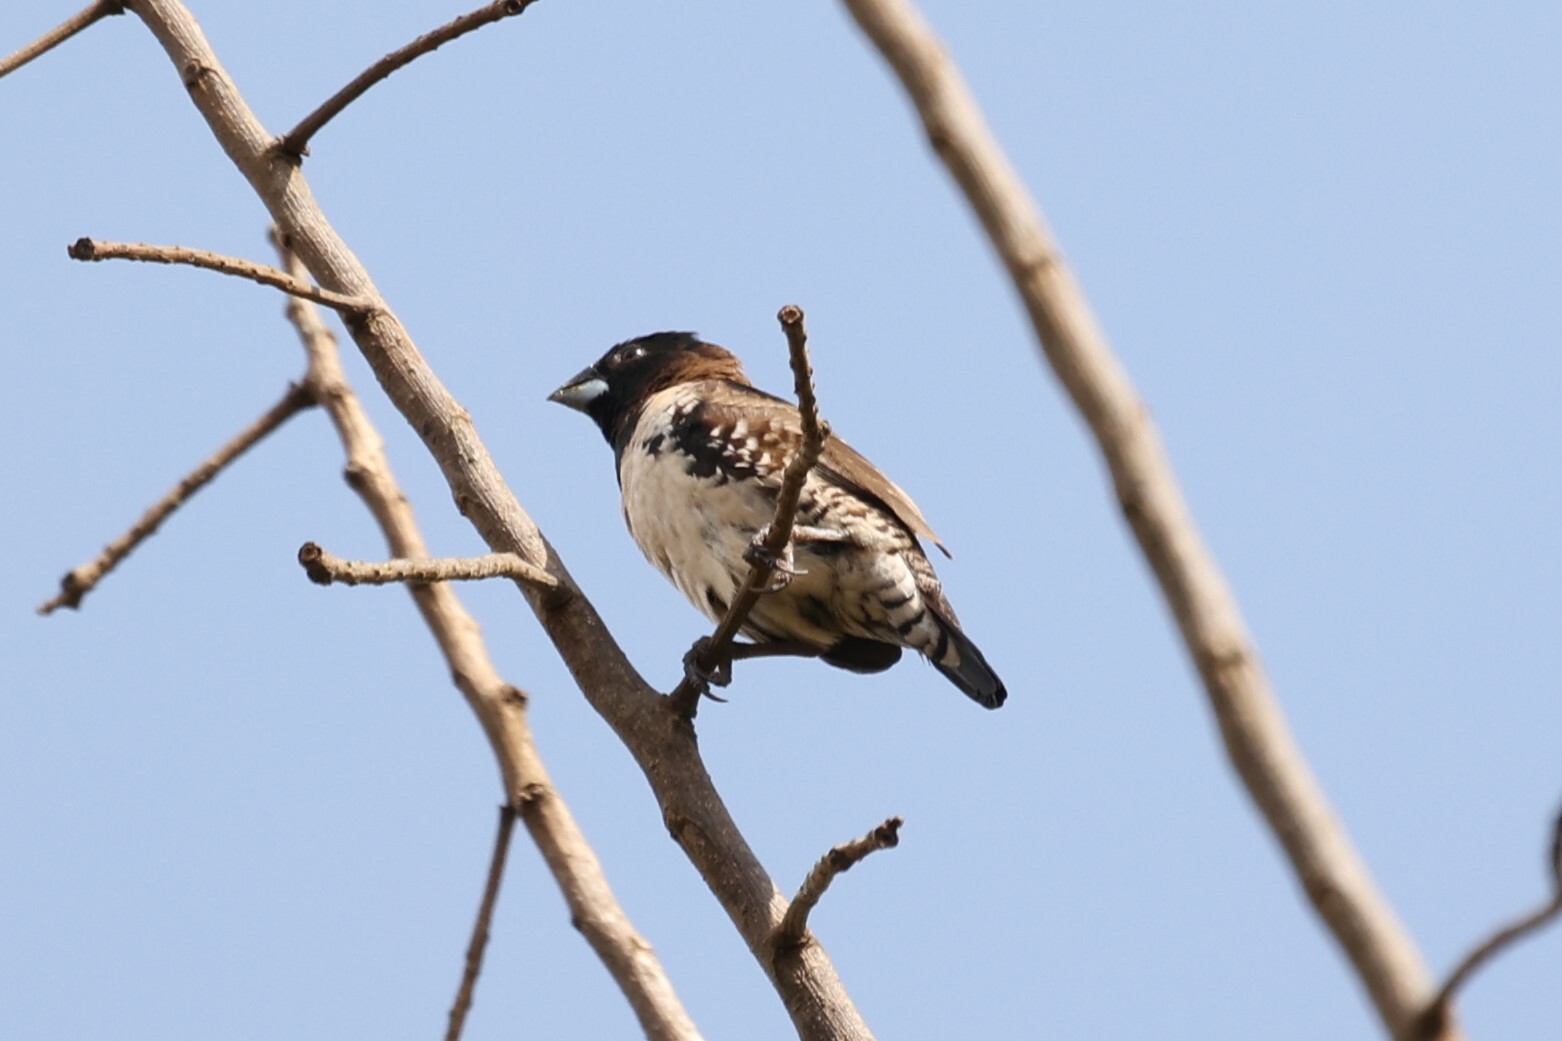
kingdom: Animalia
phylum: Chordata
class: Aves
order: Passeriformes
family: Estrildidae
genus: Lonchura
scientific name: Lonchura cucullata
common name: Bronze mannikin
